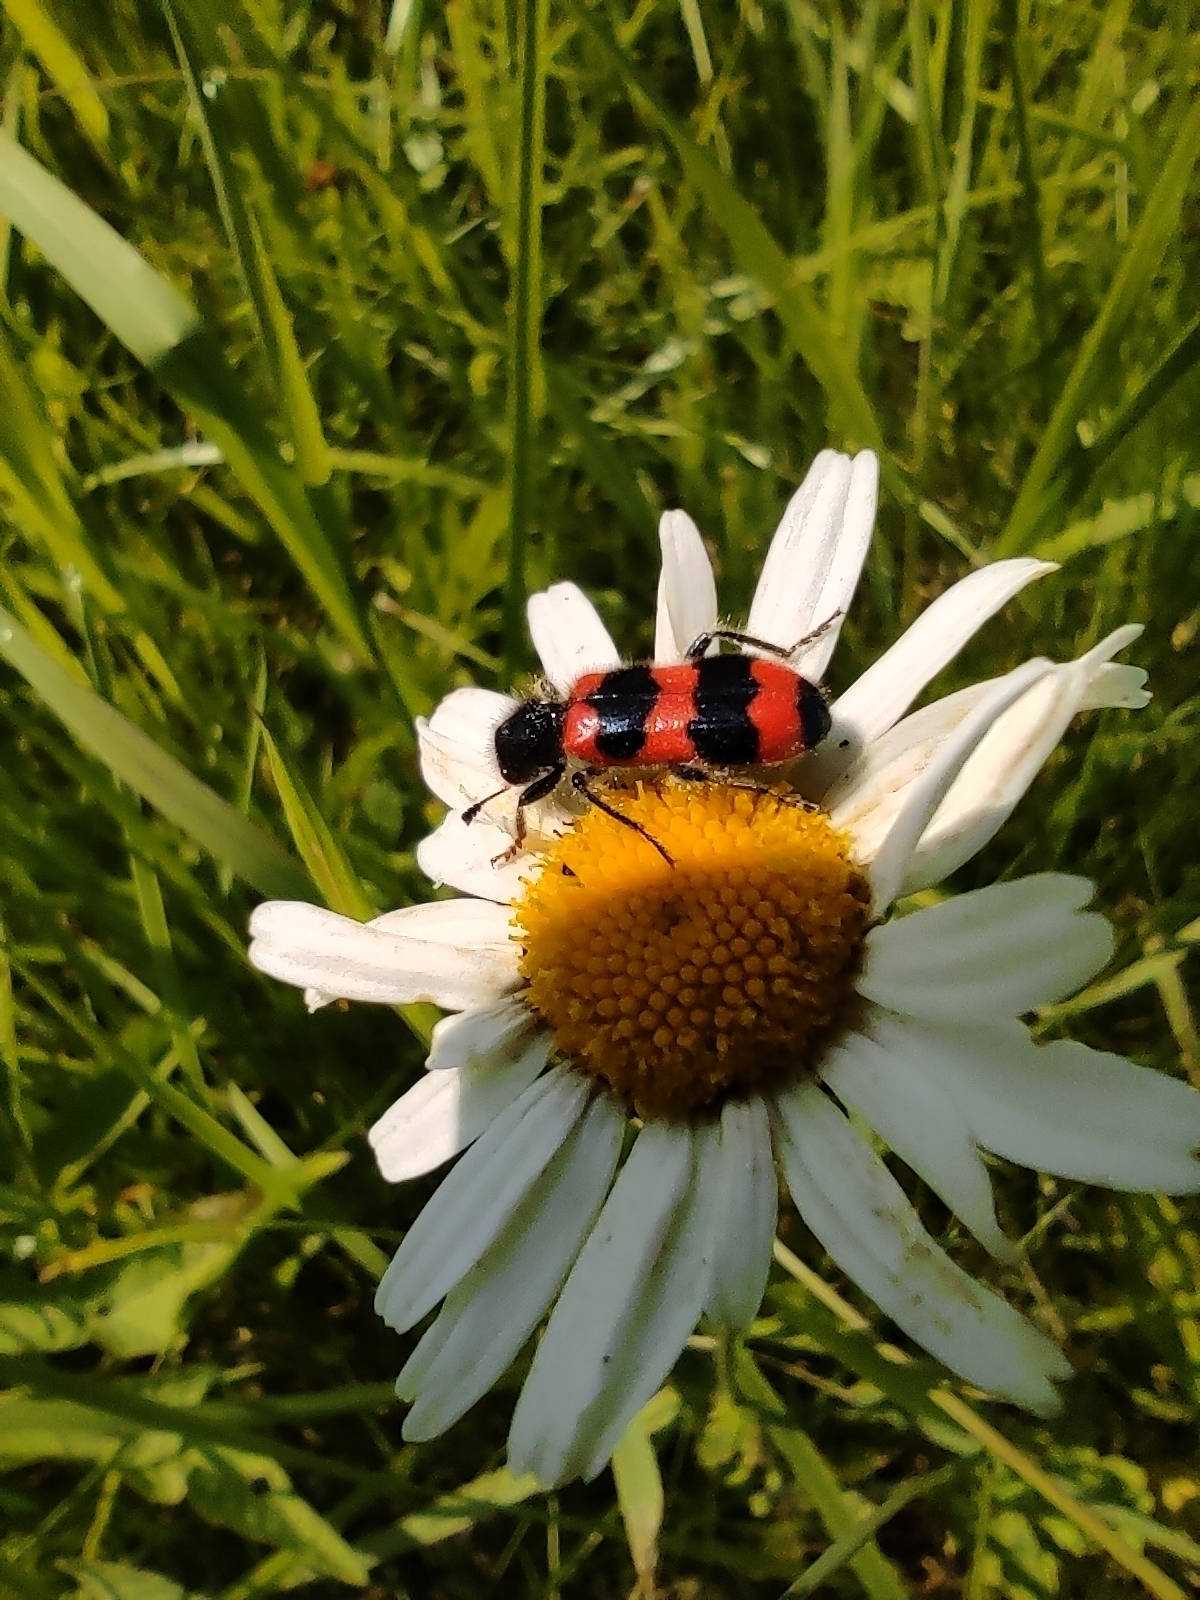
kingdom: Animalia
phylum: Arthropoda
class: Insecta
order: Coleoptera
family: Cleridae
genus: Trichodes
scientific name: Trichodes apiarius
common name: Bee-eating beetle
